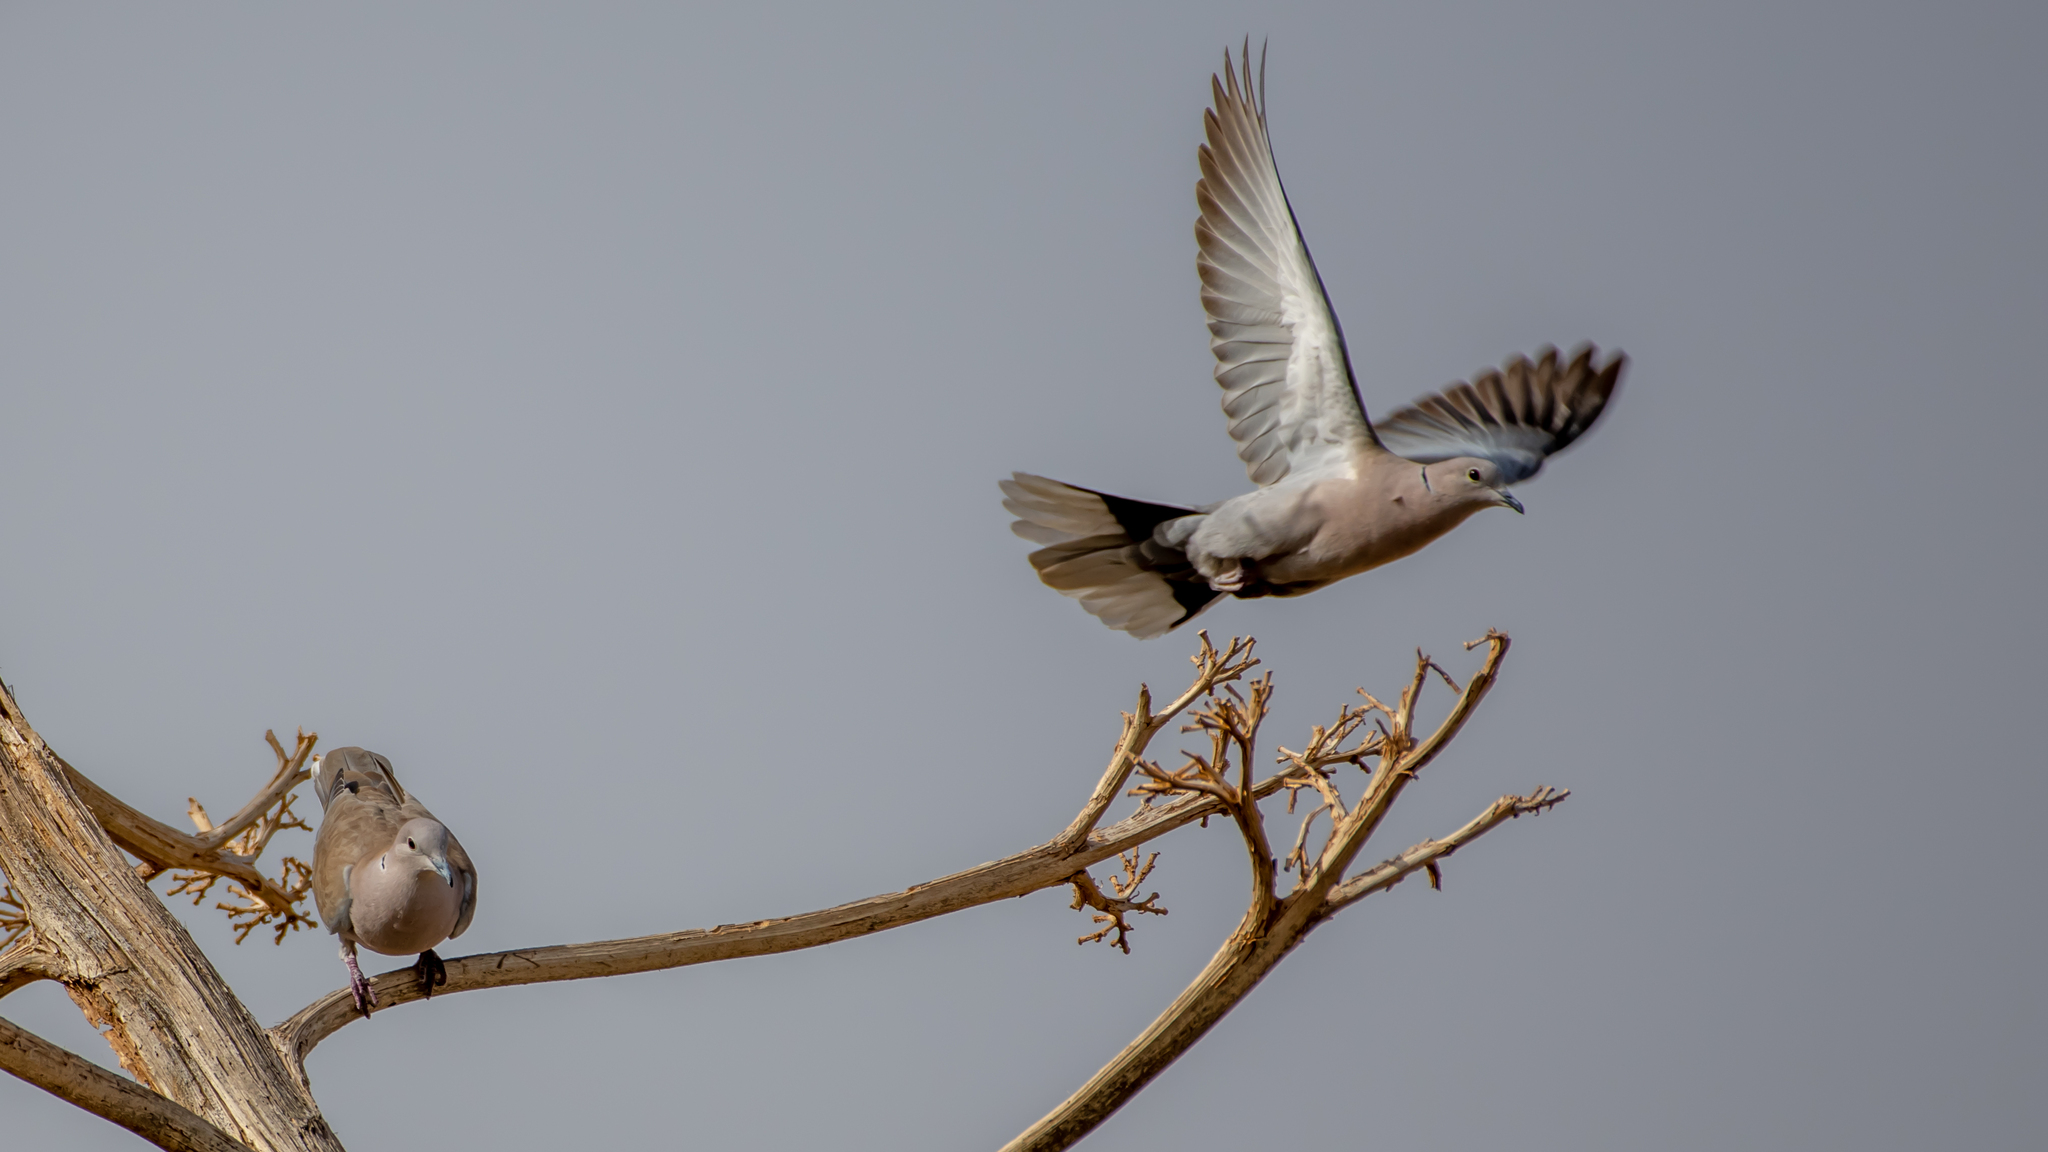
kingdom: Animalia
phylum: Chordata
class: Aves
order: Columbiformes
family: Columbidae
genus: Streptopelia
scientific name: Streptopelia decaocto
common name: Eurasian collared dove
